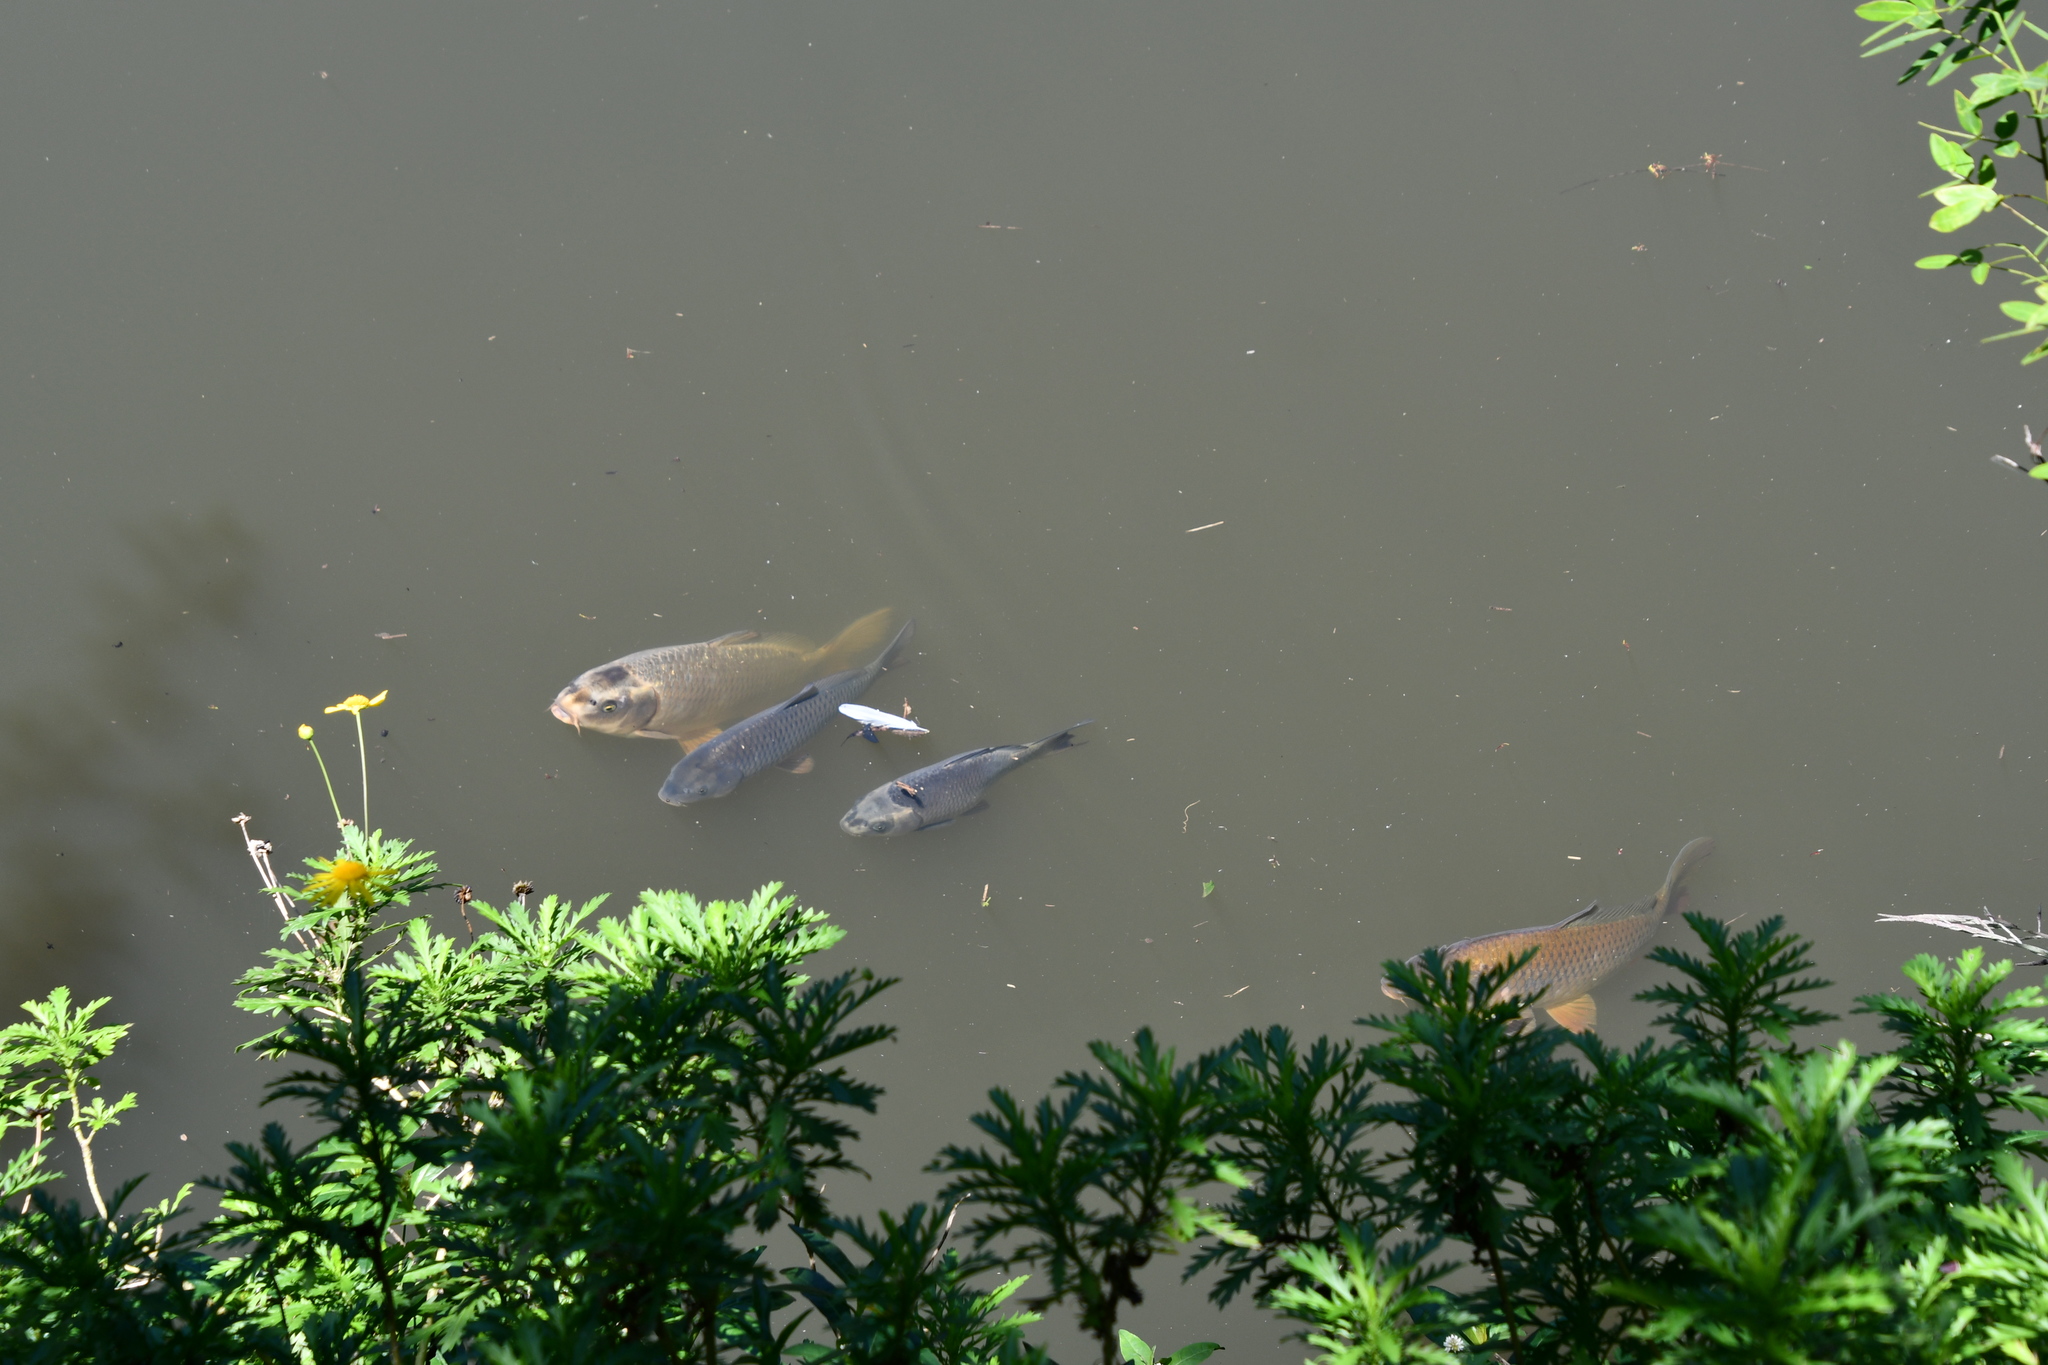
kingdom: Animalia
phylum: Chordata
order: Cypriniformes
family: Cyprinidae
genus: Cyprinus
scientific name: Cyprinus carpio
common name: Common carp
